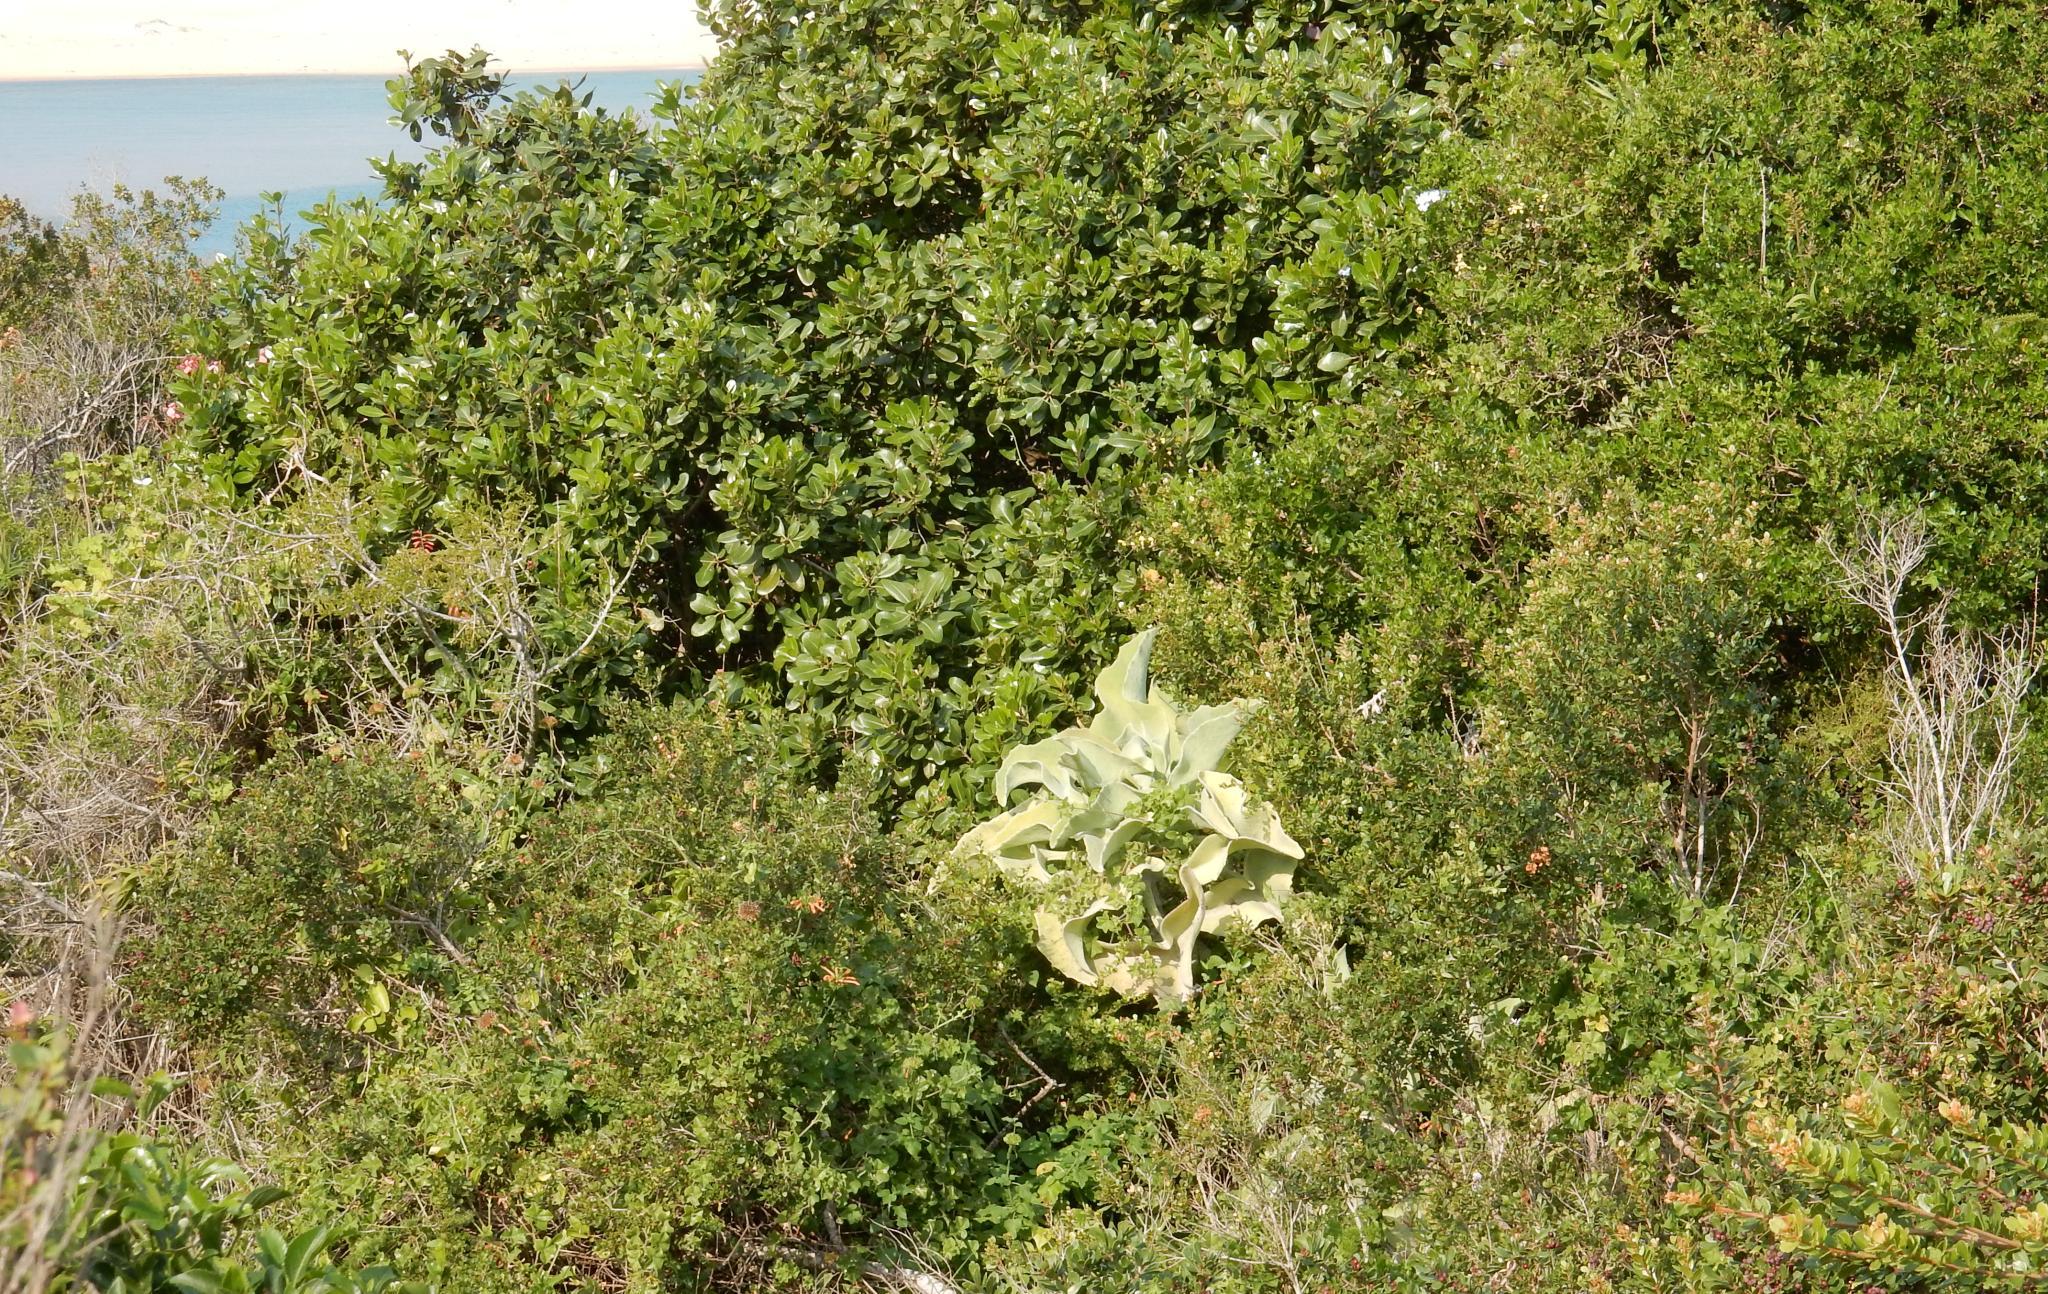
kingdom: Plantae
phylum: Tracheophyta
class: Magnoliopsida
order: Saxifragales
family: Crassulaceae
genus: Kalanchoe
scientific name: Kalanchoe beharensis
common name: Velvet leaf
